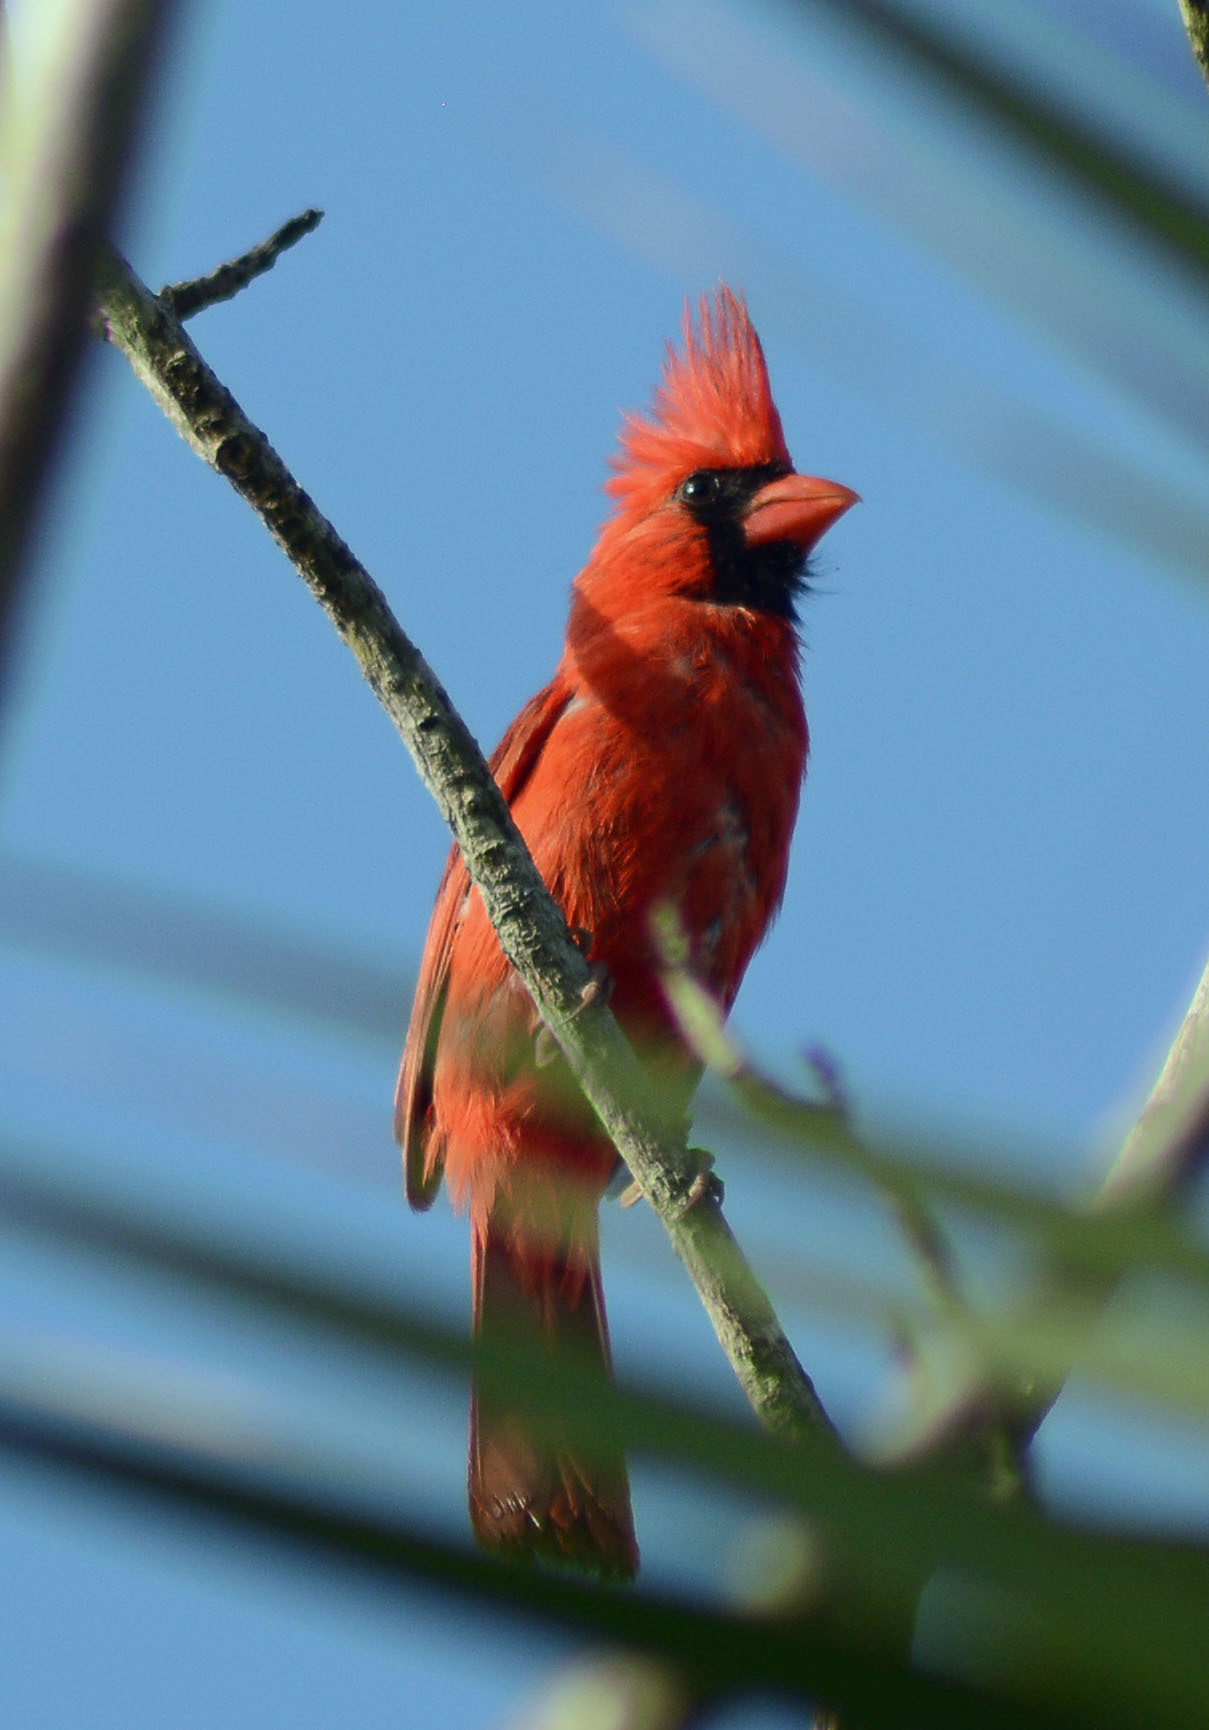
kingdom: Animalia
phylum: Chordata
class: Aves
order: Passeriformes
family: Cardinalidae
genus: Cardinalis
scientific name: Cardinalis cardinalis
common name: Northern cardinal
